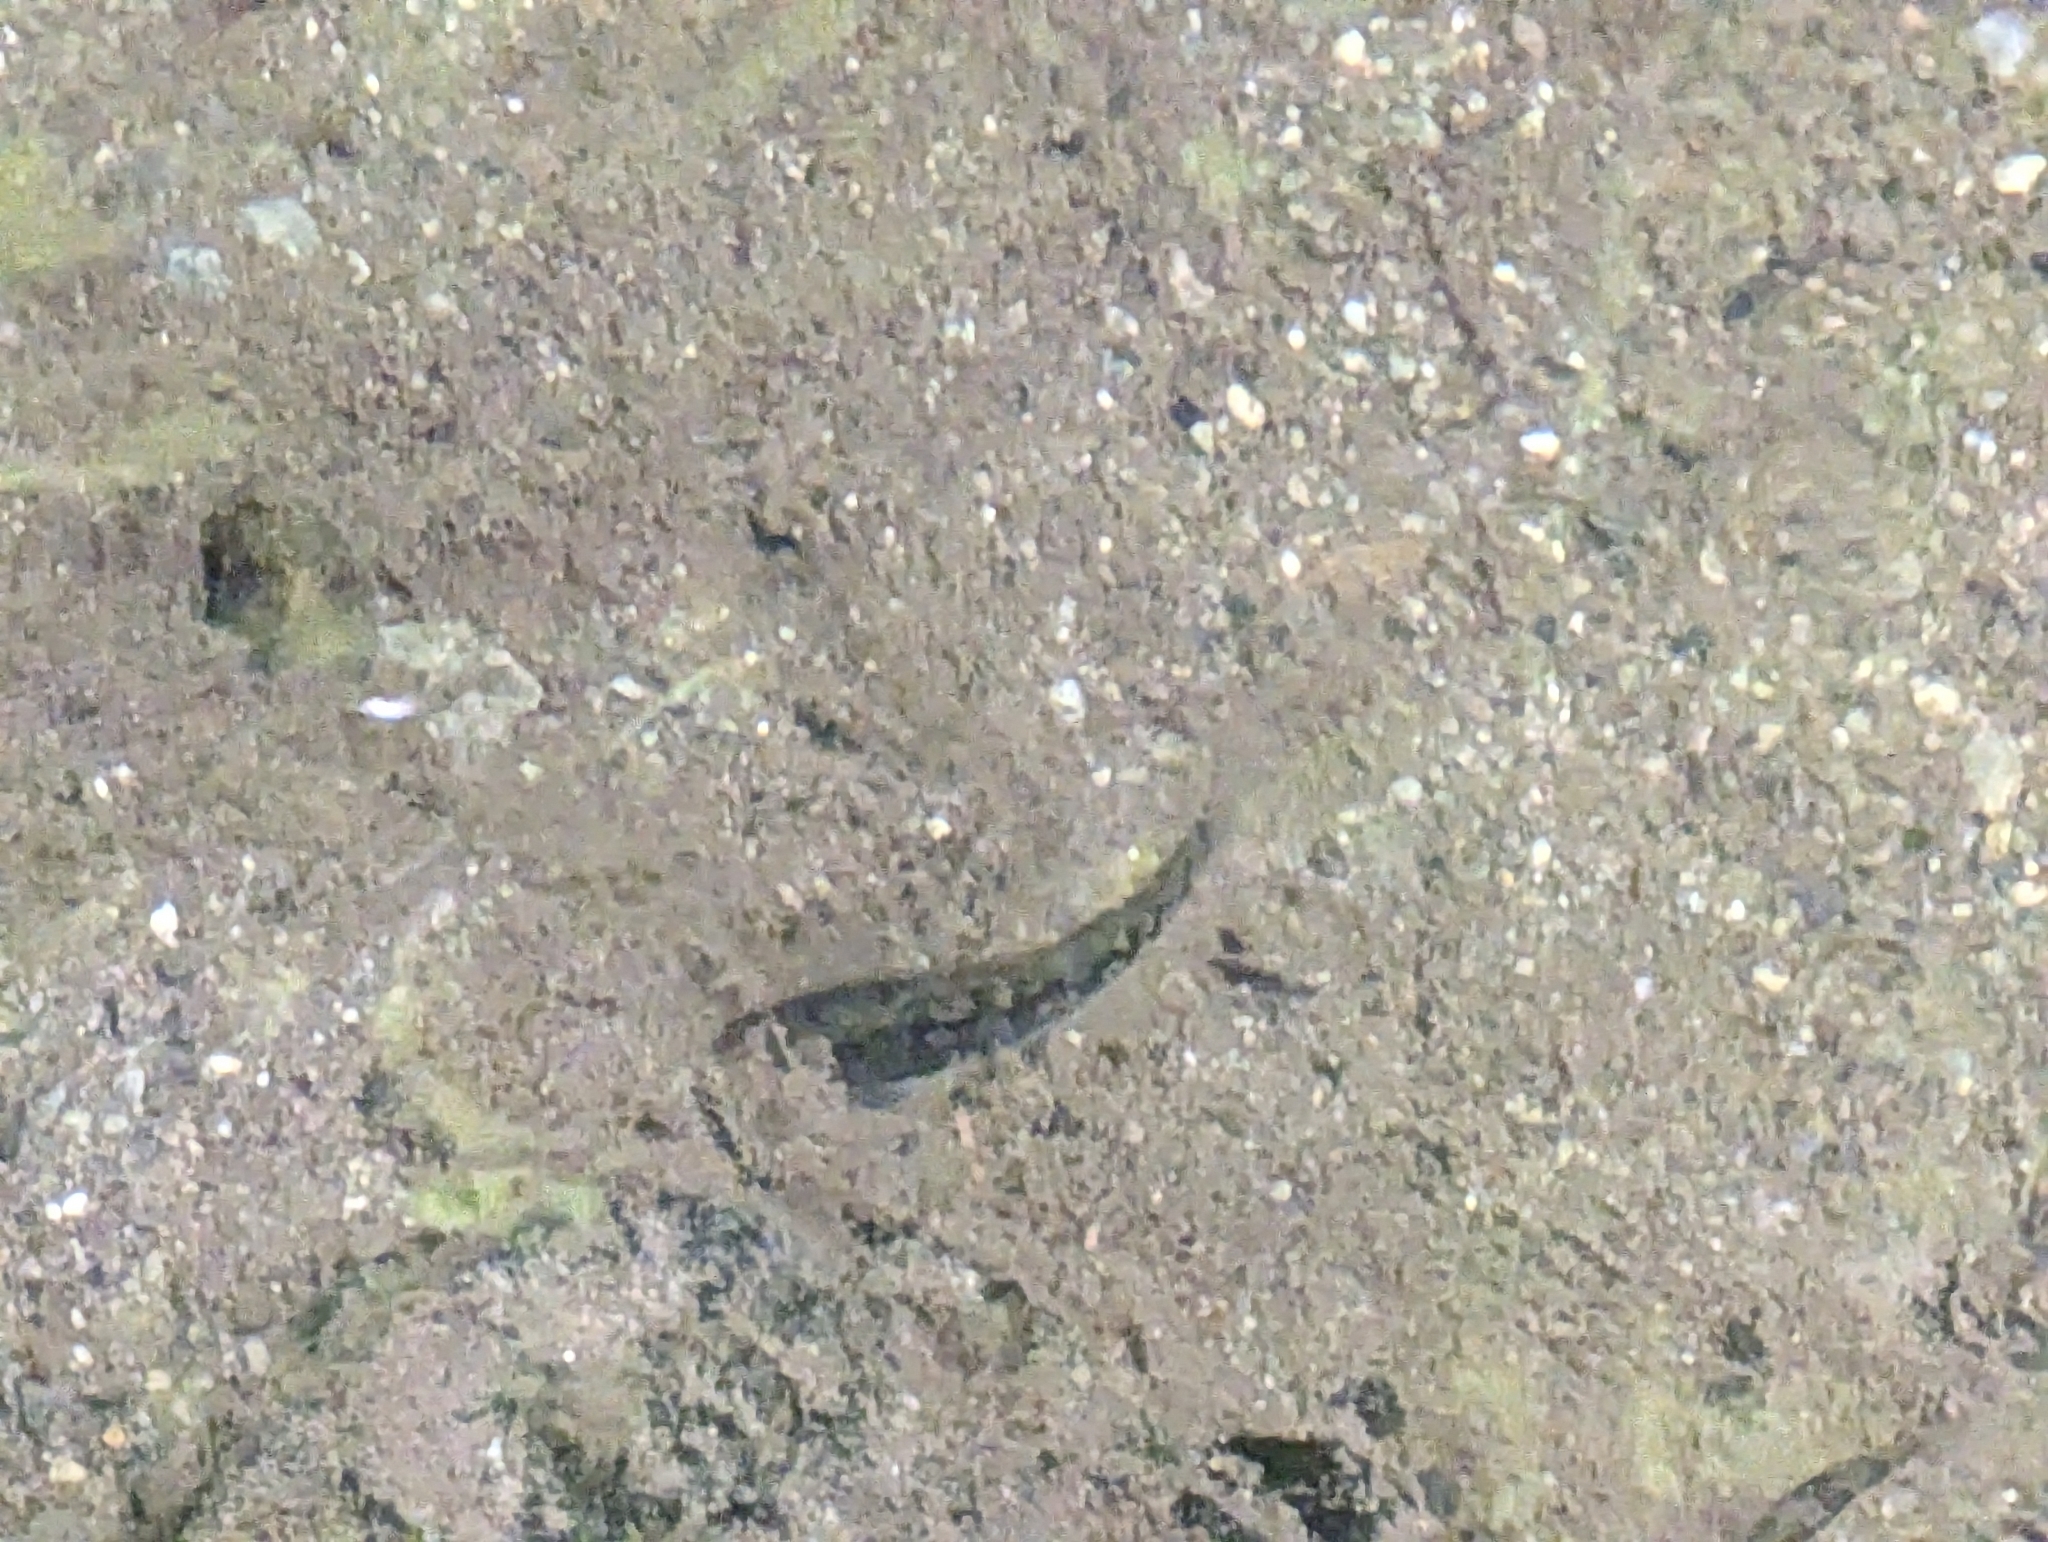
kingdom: Animalia
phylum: Chordata
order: Gasterosteiformes
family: Gasterosteidae
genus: Gasterosteus
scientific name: Gasterosteus aculeatus
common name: Three-spined stickleback
